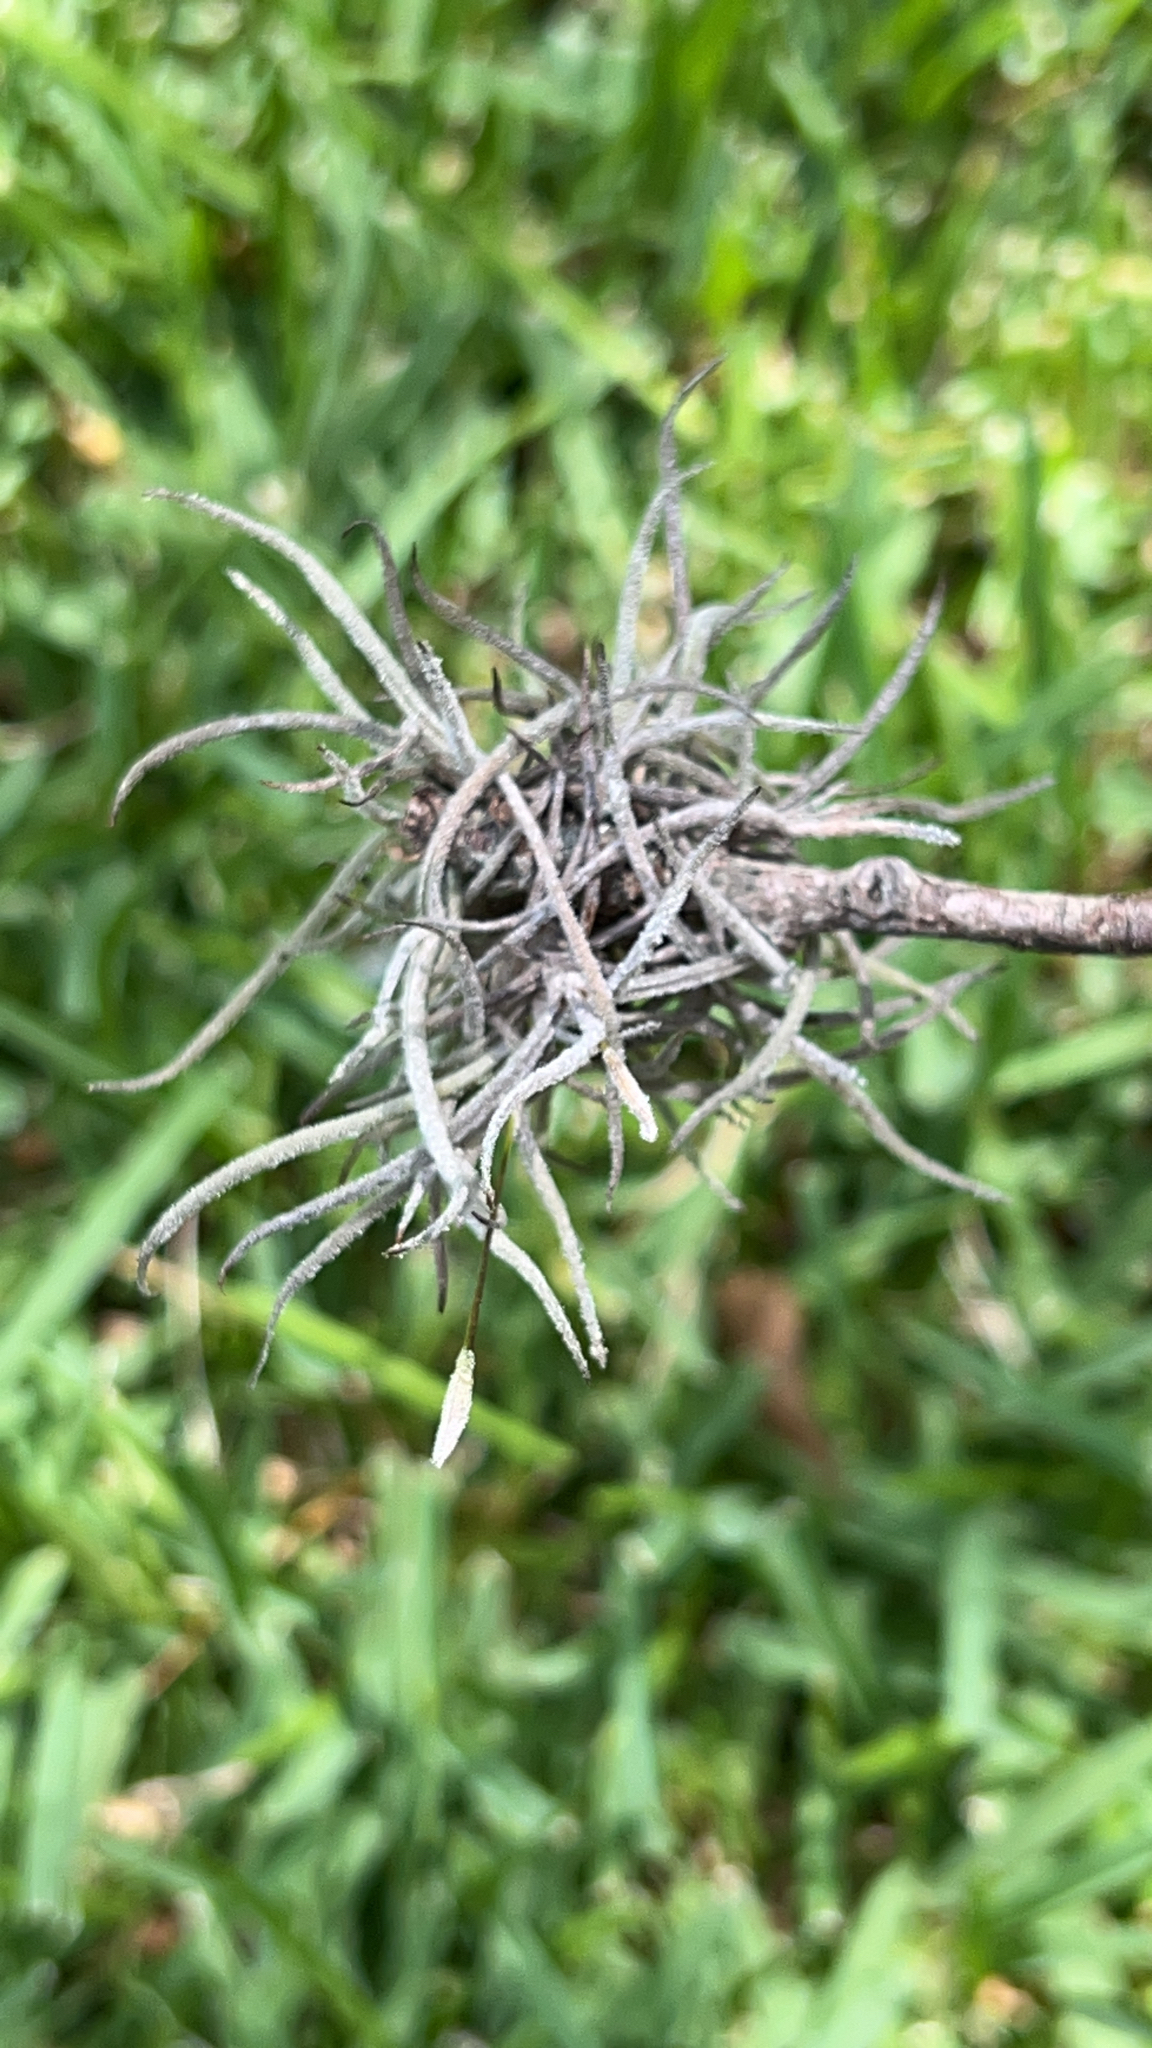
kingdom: Plantae
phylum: Tracheophyta
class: Liliopsida
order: Poales
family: Bromeliaceae
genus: Tillandsia
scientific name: Tillandsia recurvata
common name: Small ballmoss
